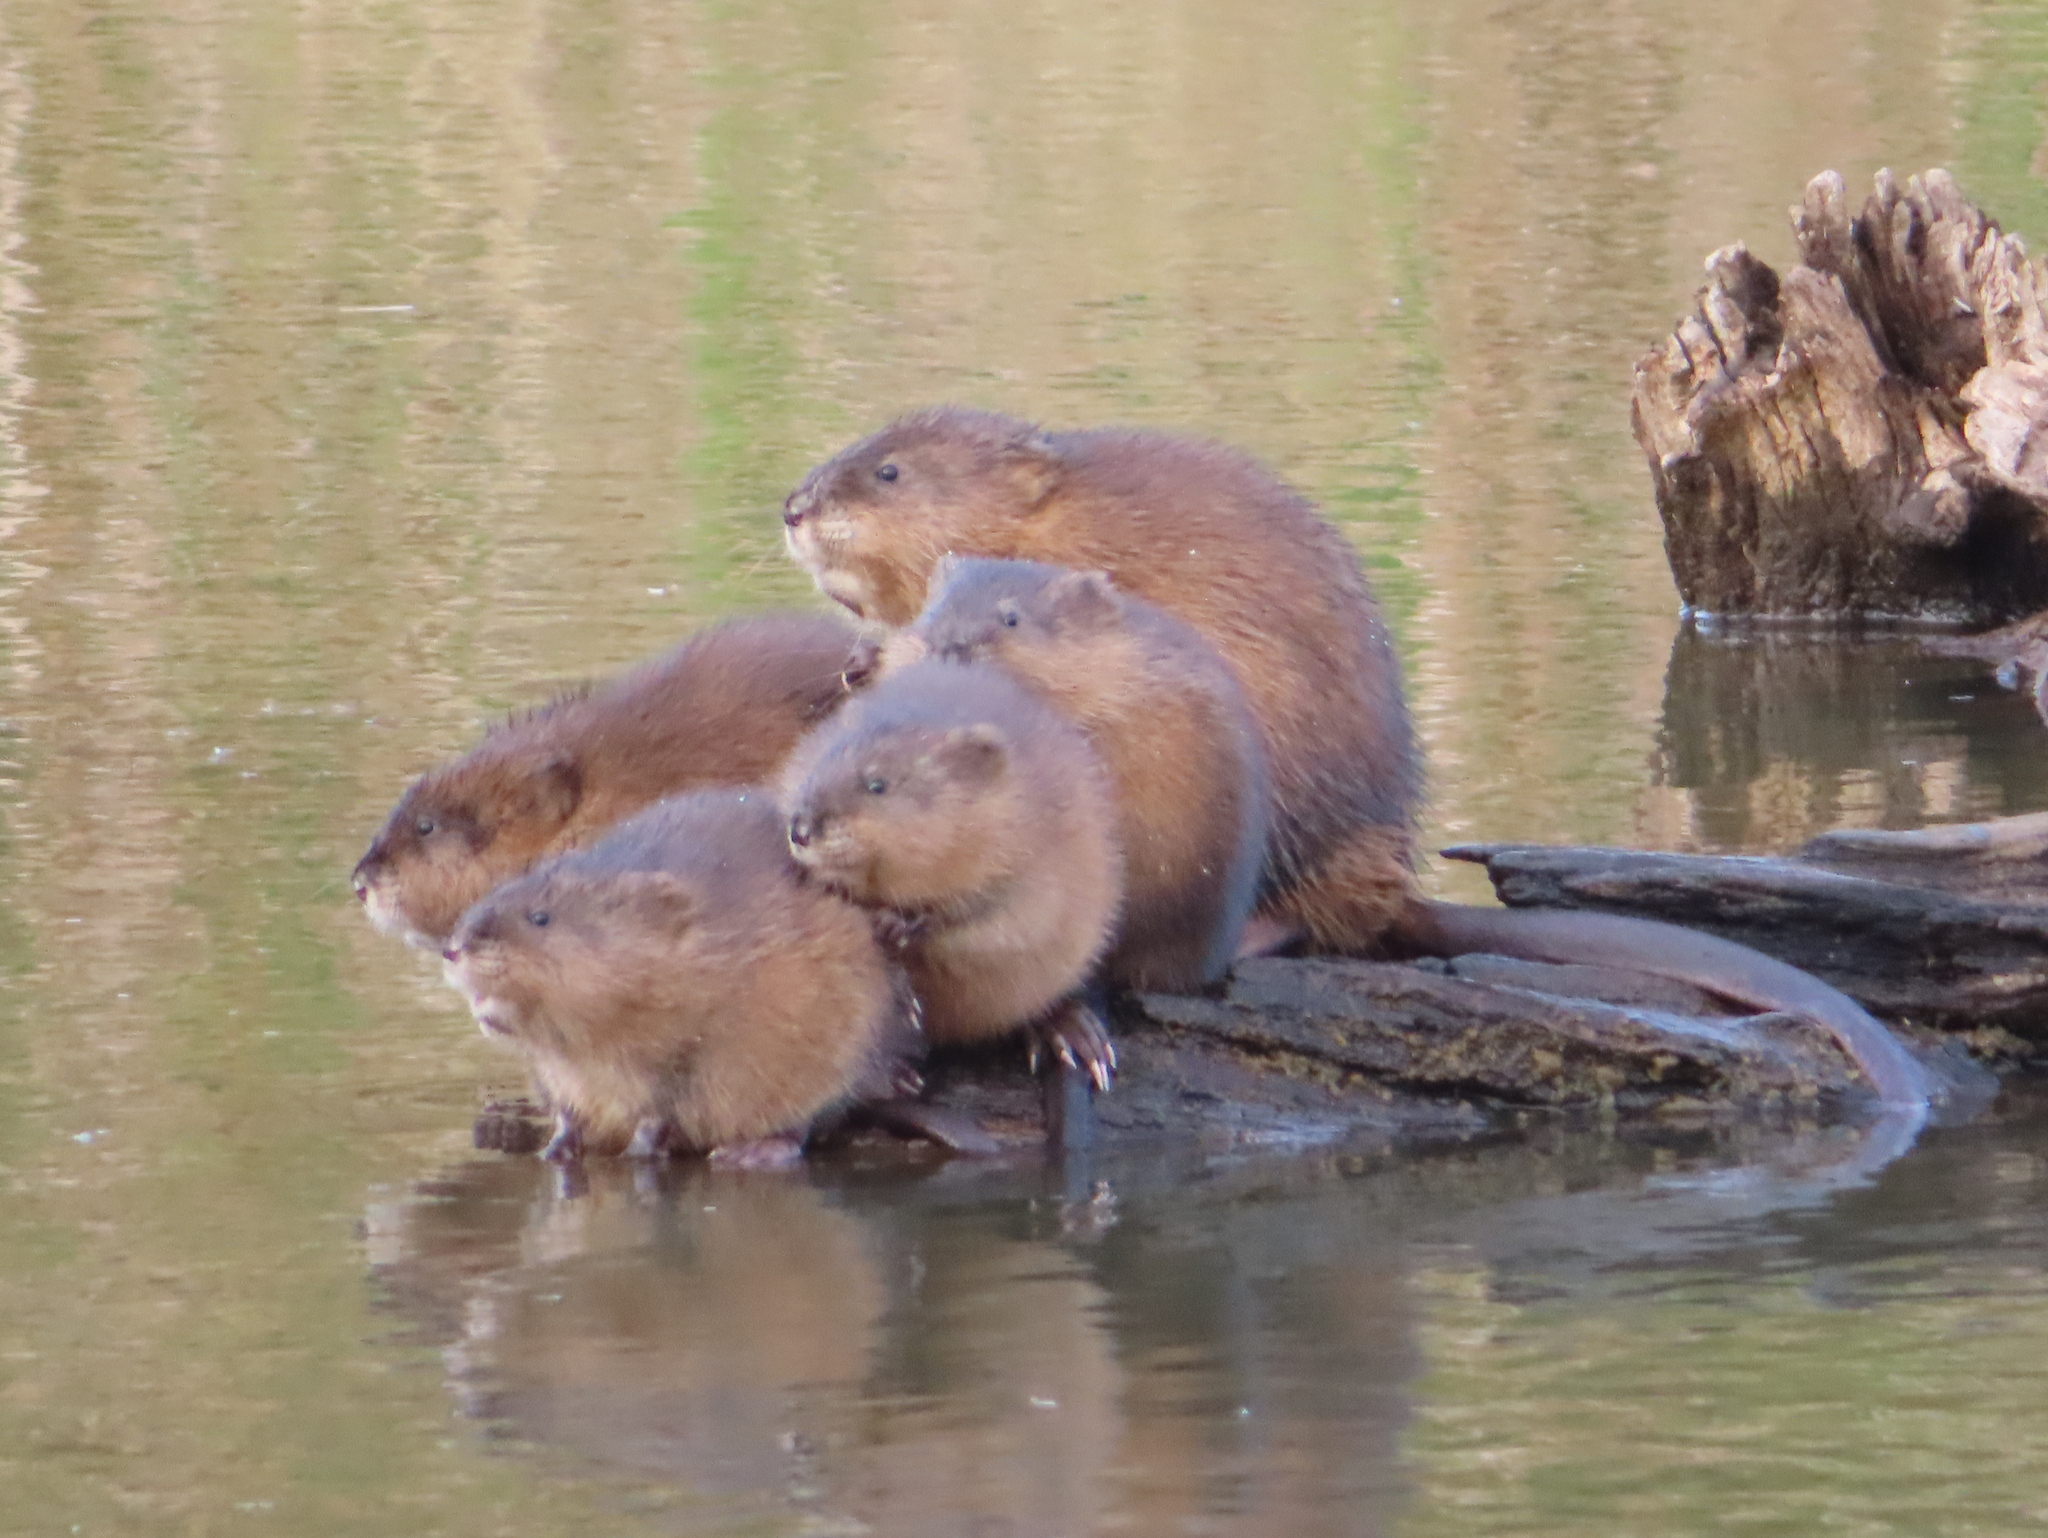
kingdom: Animalia
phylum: Chordata
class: Mammalia
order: Rodentia
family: Cricetidae
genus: Ondatra
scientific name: Ondatra zibethicus
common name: Muskrat
